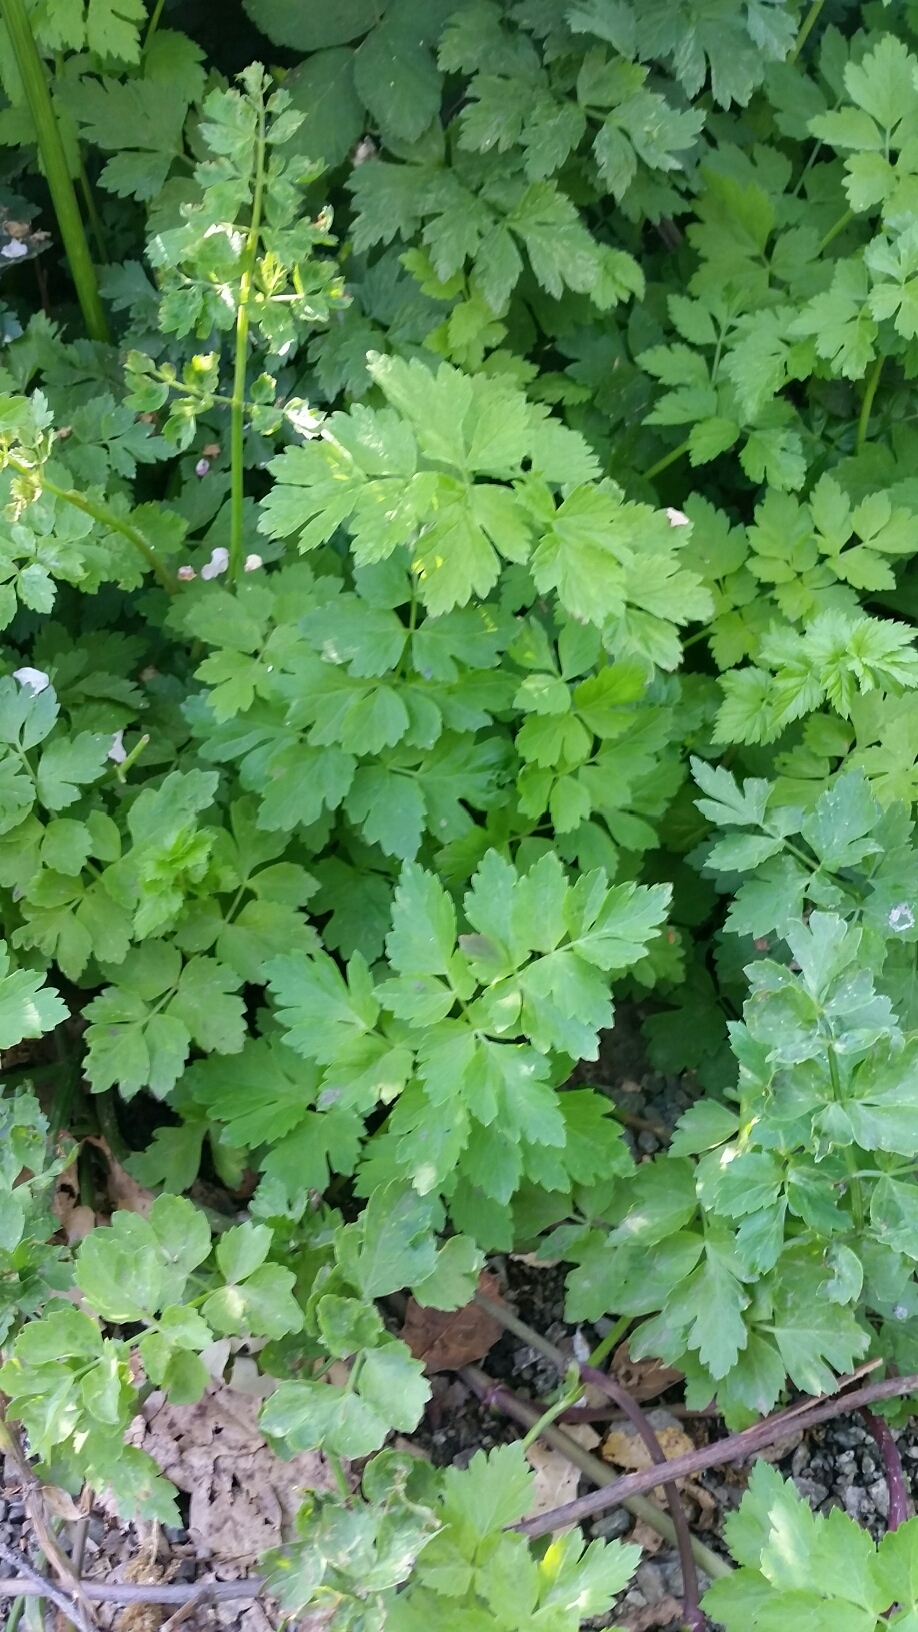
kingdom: Plantae
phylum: Tracheophyta
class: Magnoliopsida
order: Apiales
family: Apiaceae
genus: Oenanthe
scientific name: Oenanthe sarmentosa
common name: American water-parsley
